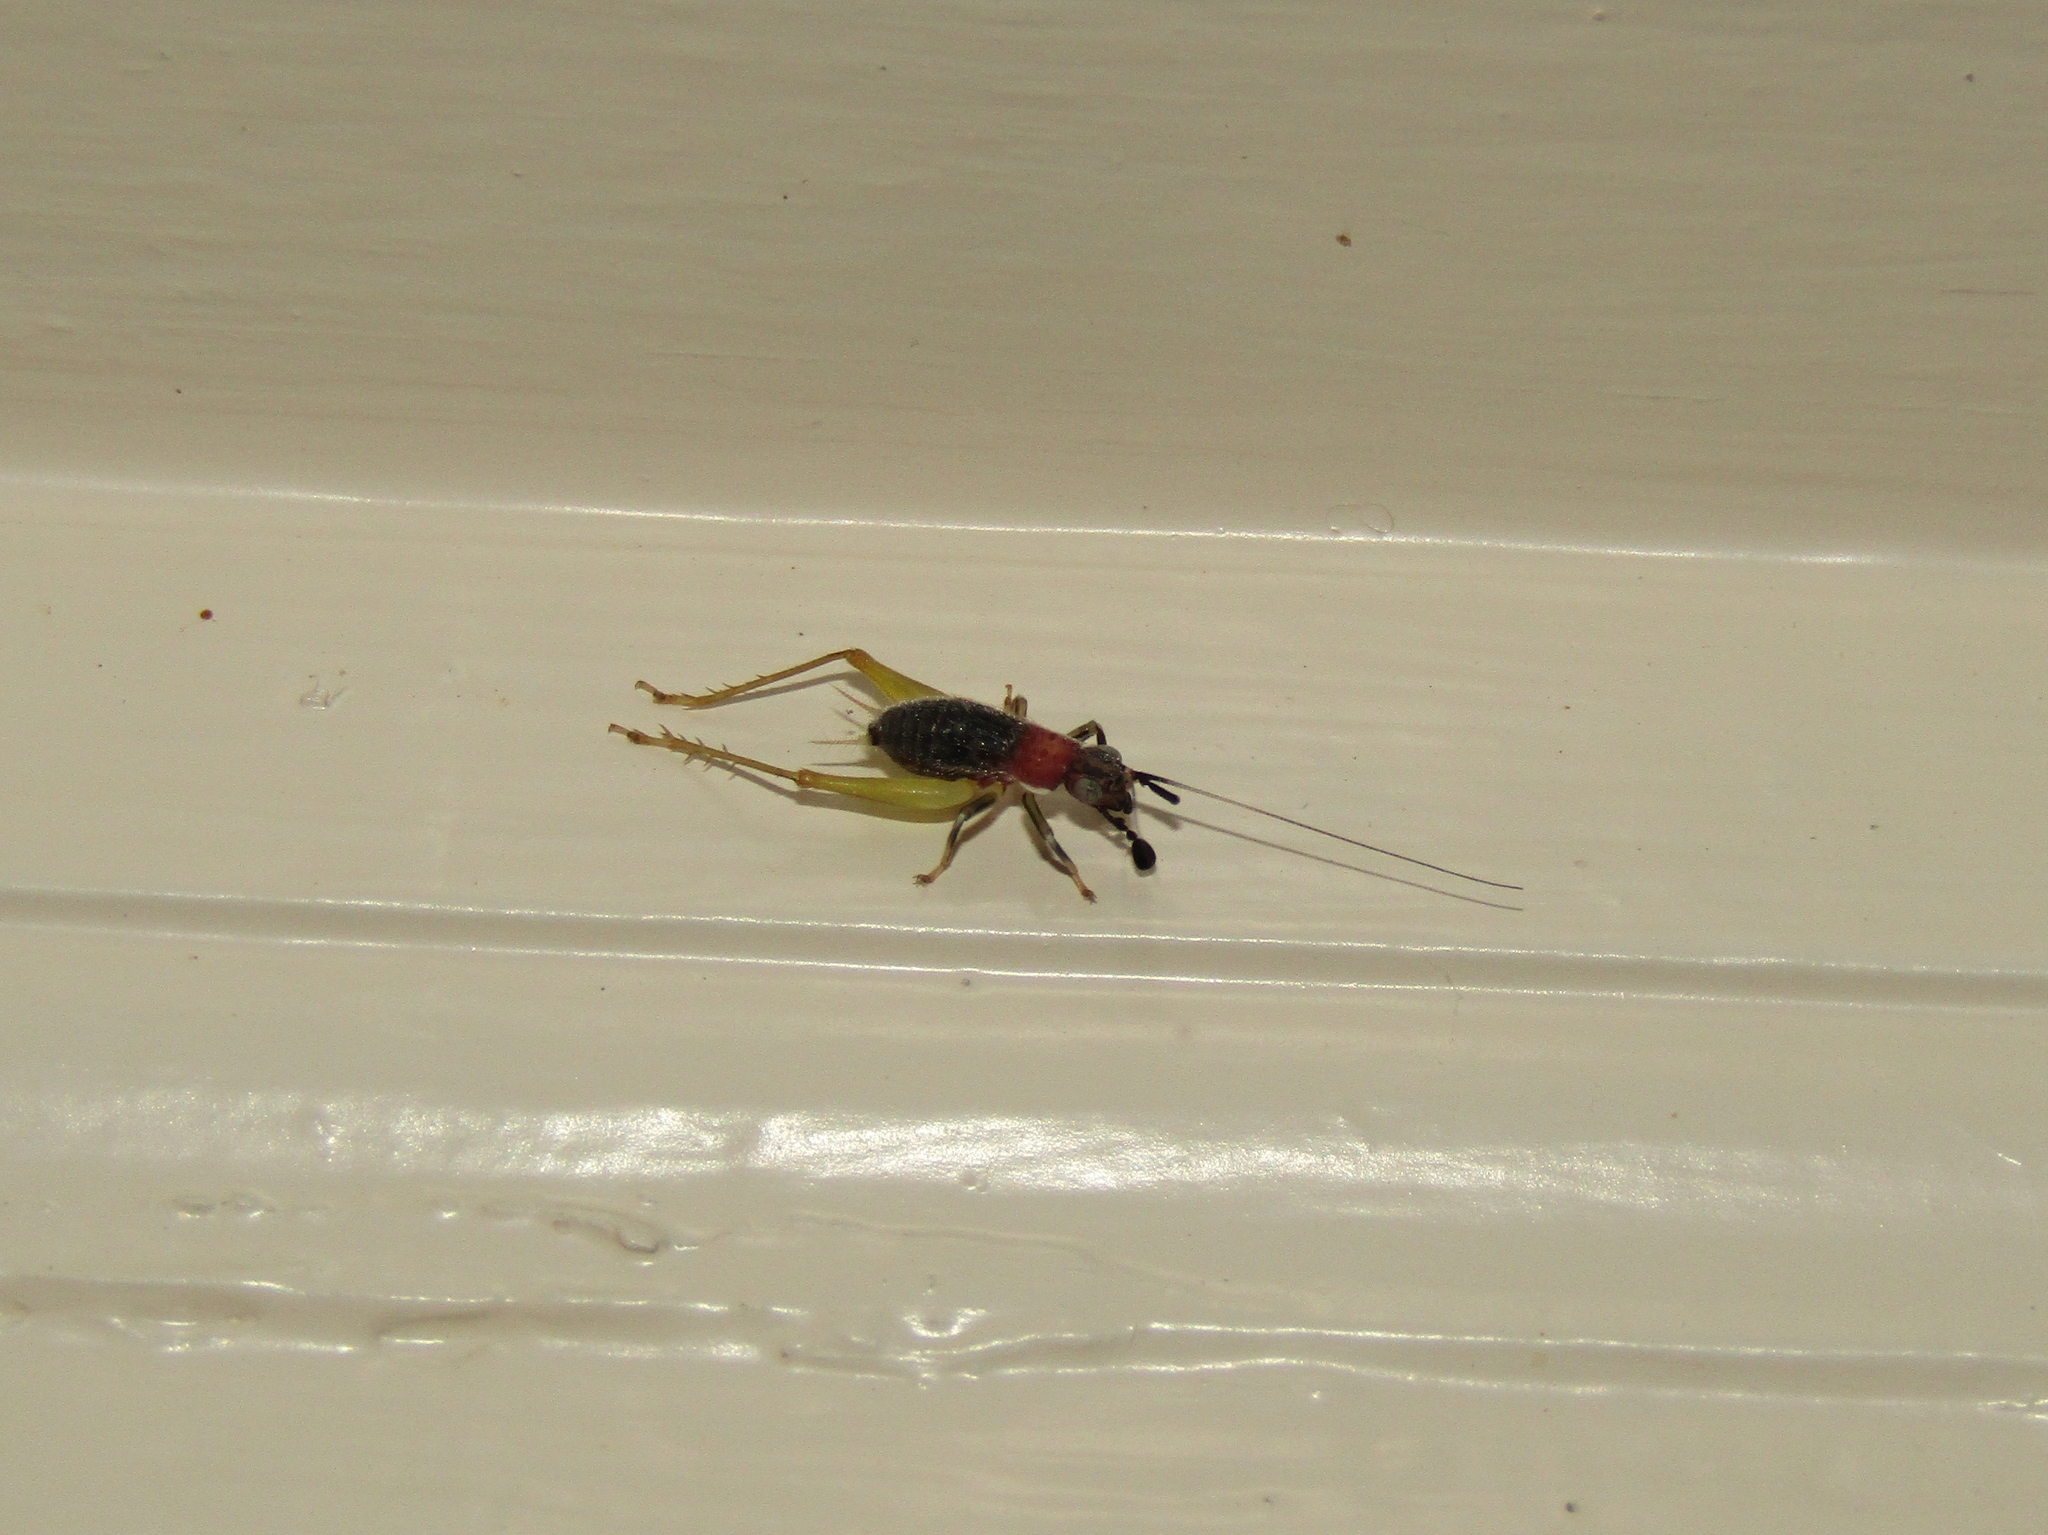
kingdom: Animalia
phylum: Arthropoda
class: Insecta
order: Orthoptera
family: Trigonidiidae
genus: Phyllopalpus
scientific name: Phyllopalpus pulchellus
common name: Handsome trig
